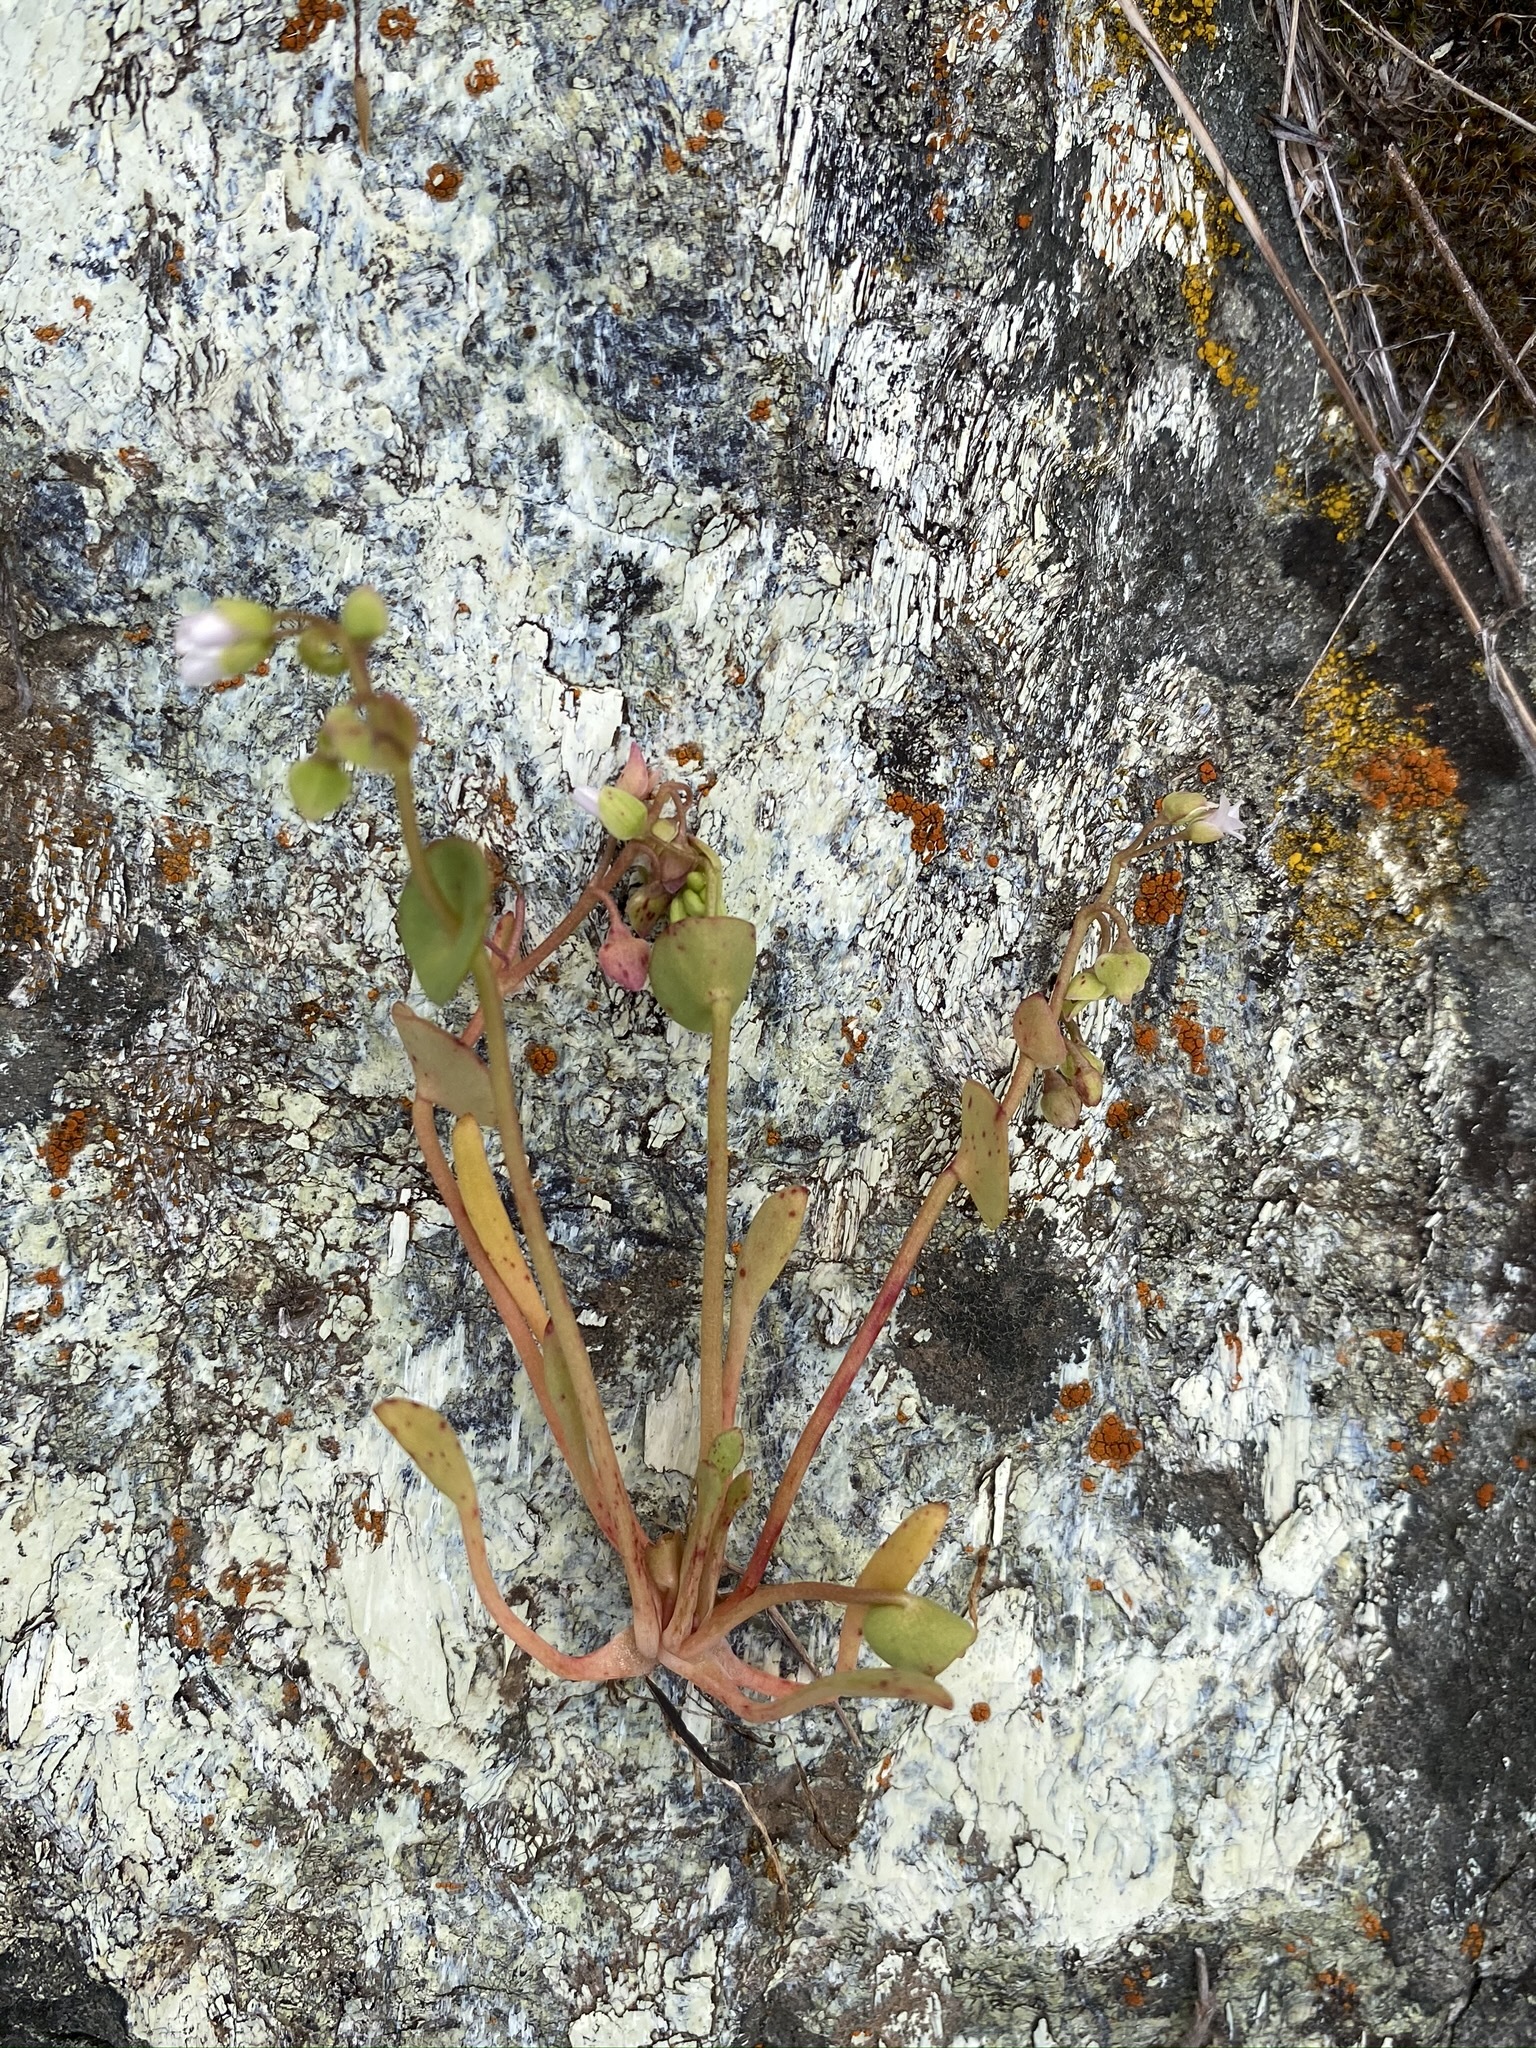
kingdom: Plantae
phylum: Tracheophyta
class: Magnoliopsida
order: Caryophyllales
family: Montiaceae
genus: Claytonia
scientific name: Claytonia parviflora
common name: Indian-lettuce
